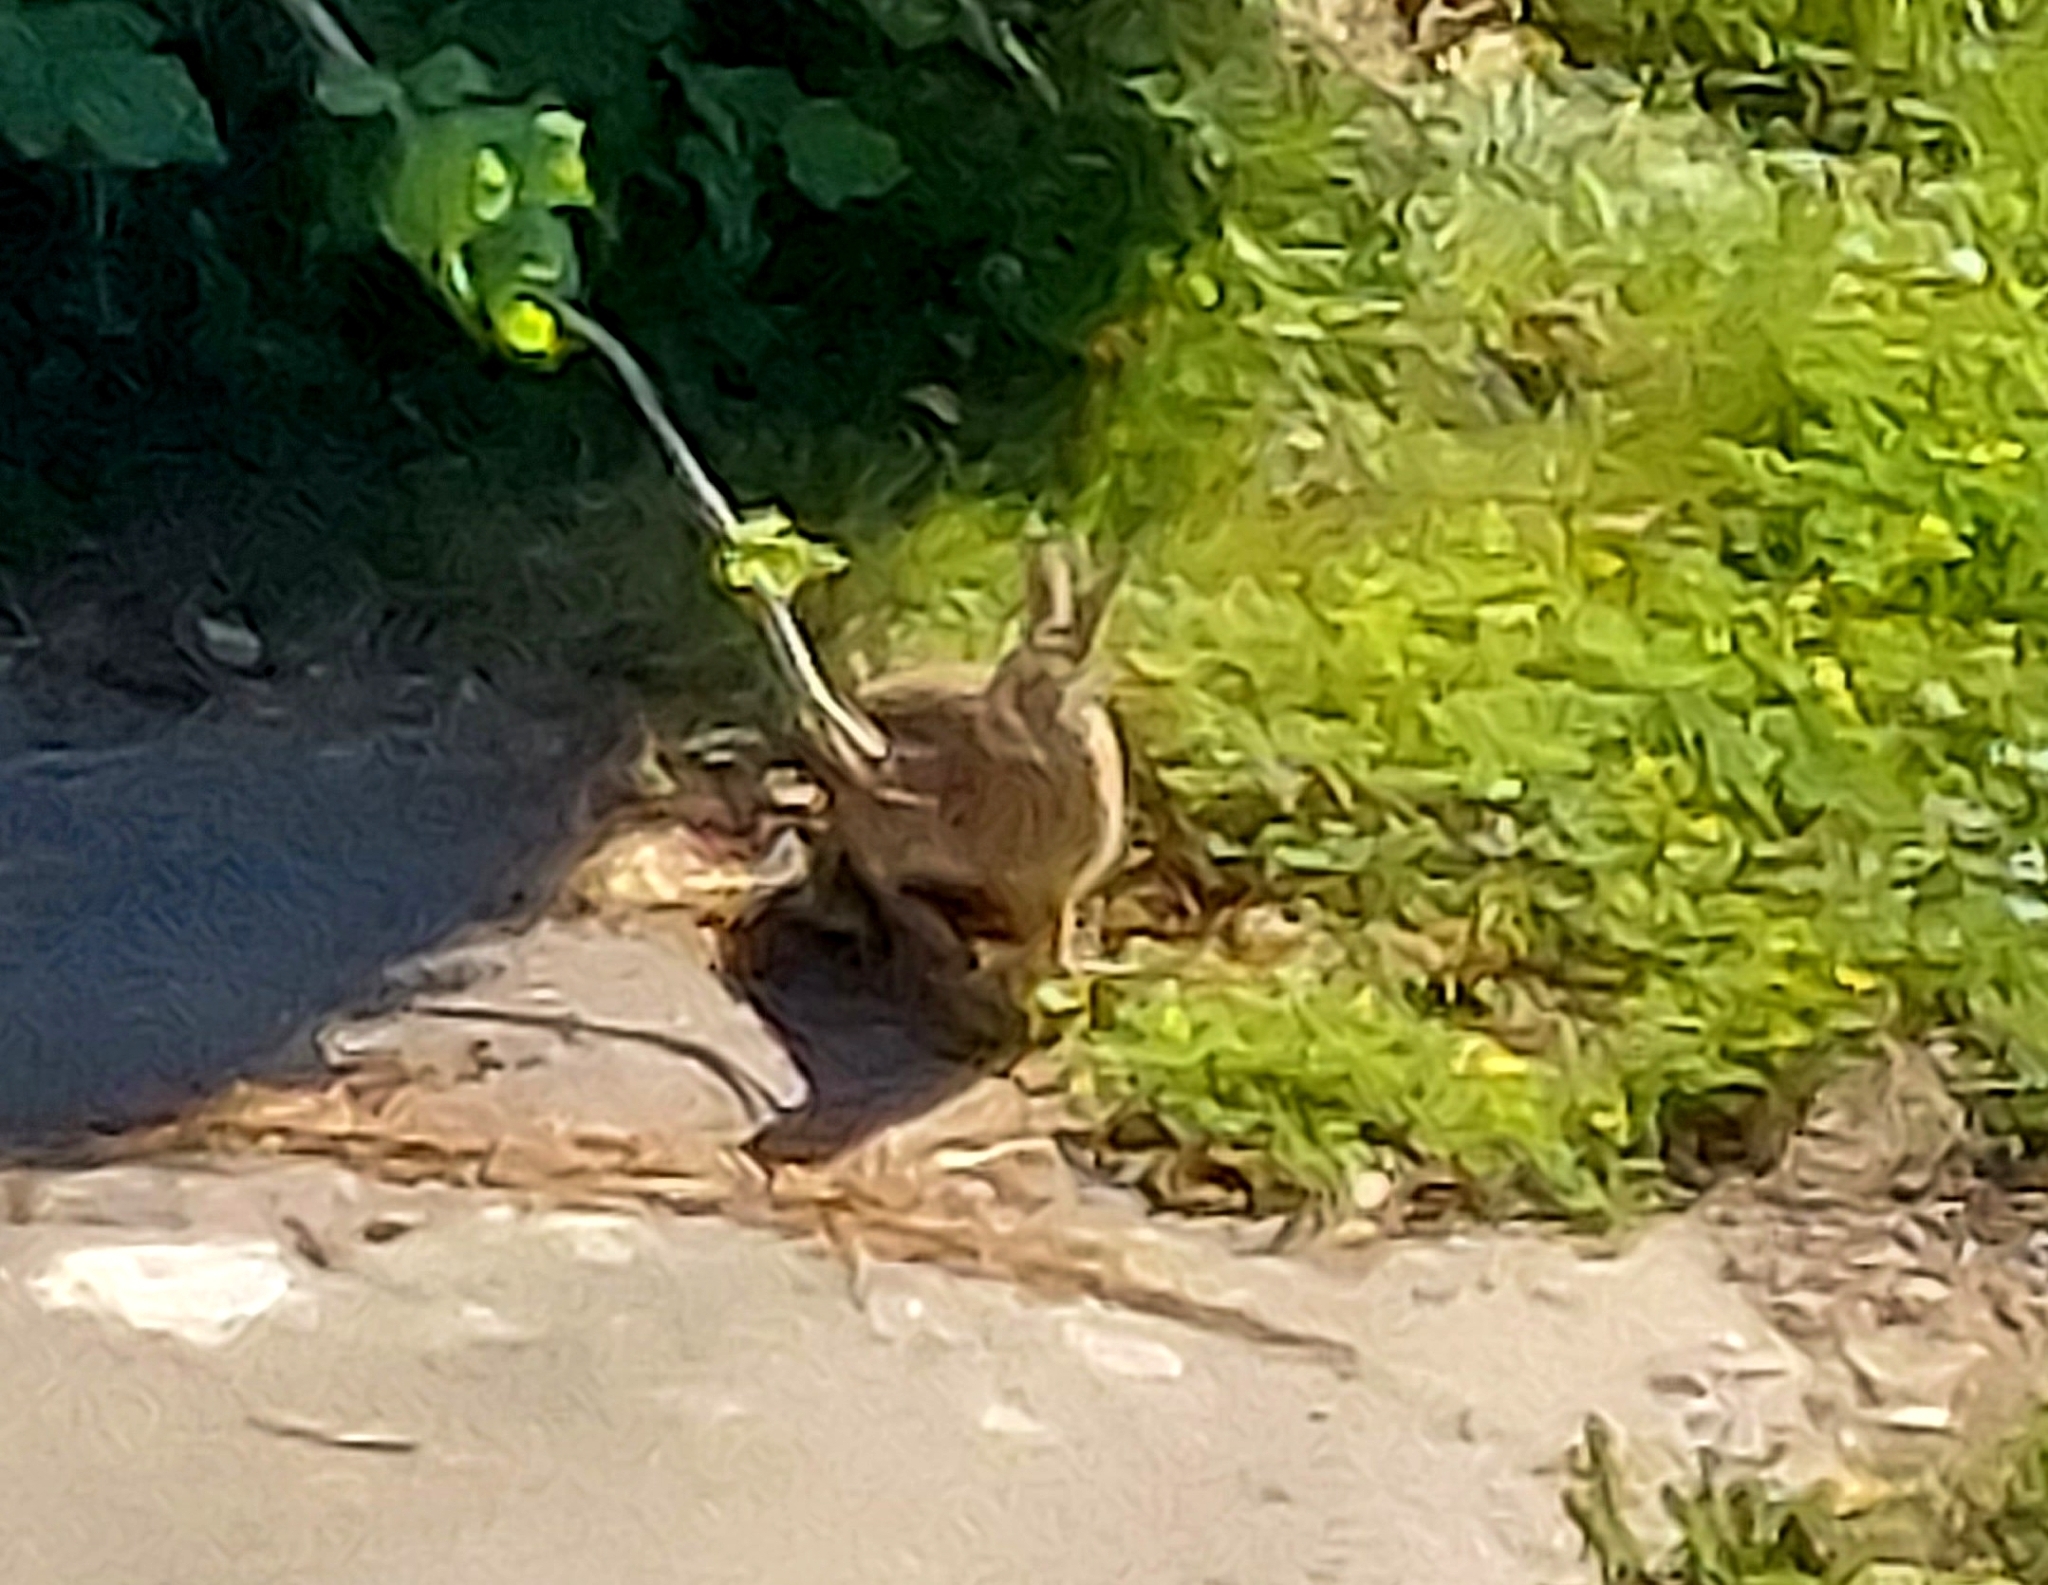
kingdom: Animalia
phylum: Chordata
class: Mammalia
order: Lagomorpha
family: Leporidae
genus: Sylvilagus
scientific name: Sylvilagus floridanus
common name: Eastern cottontail
